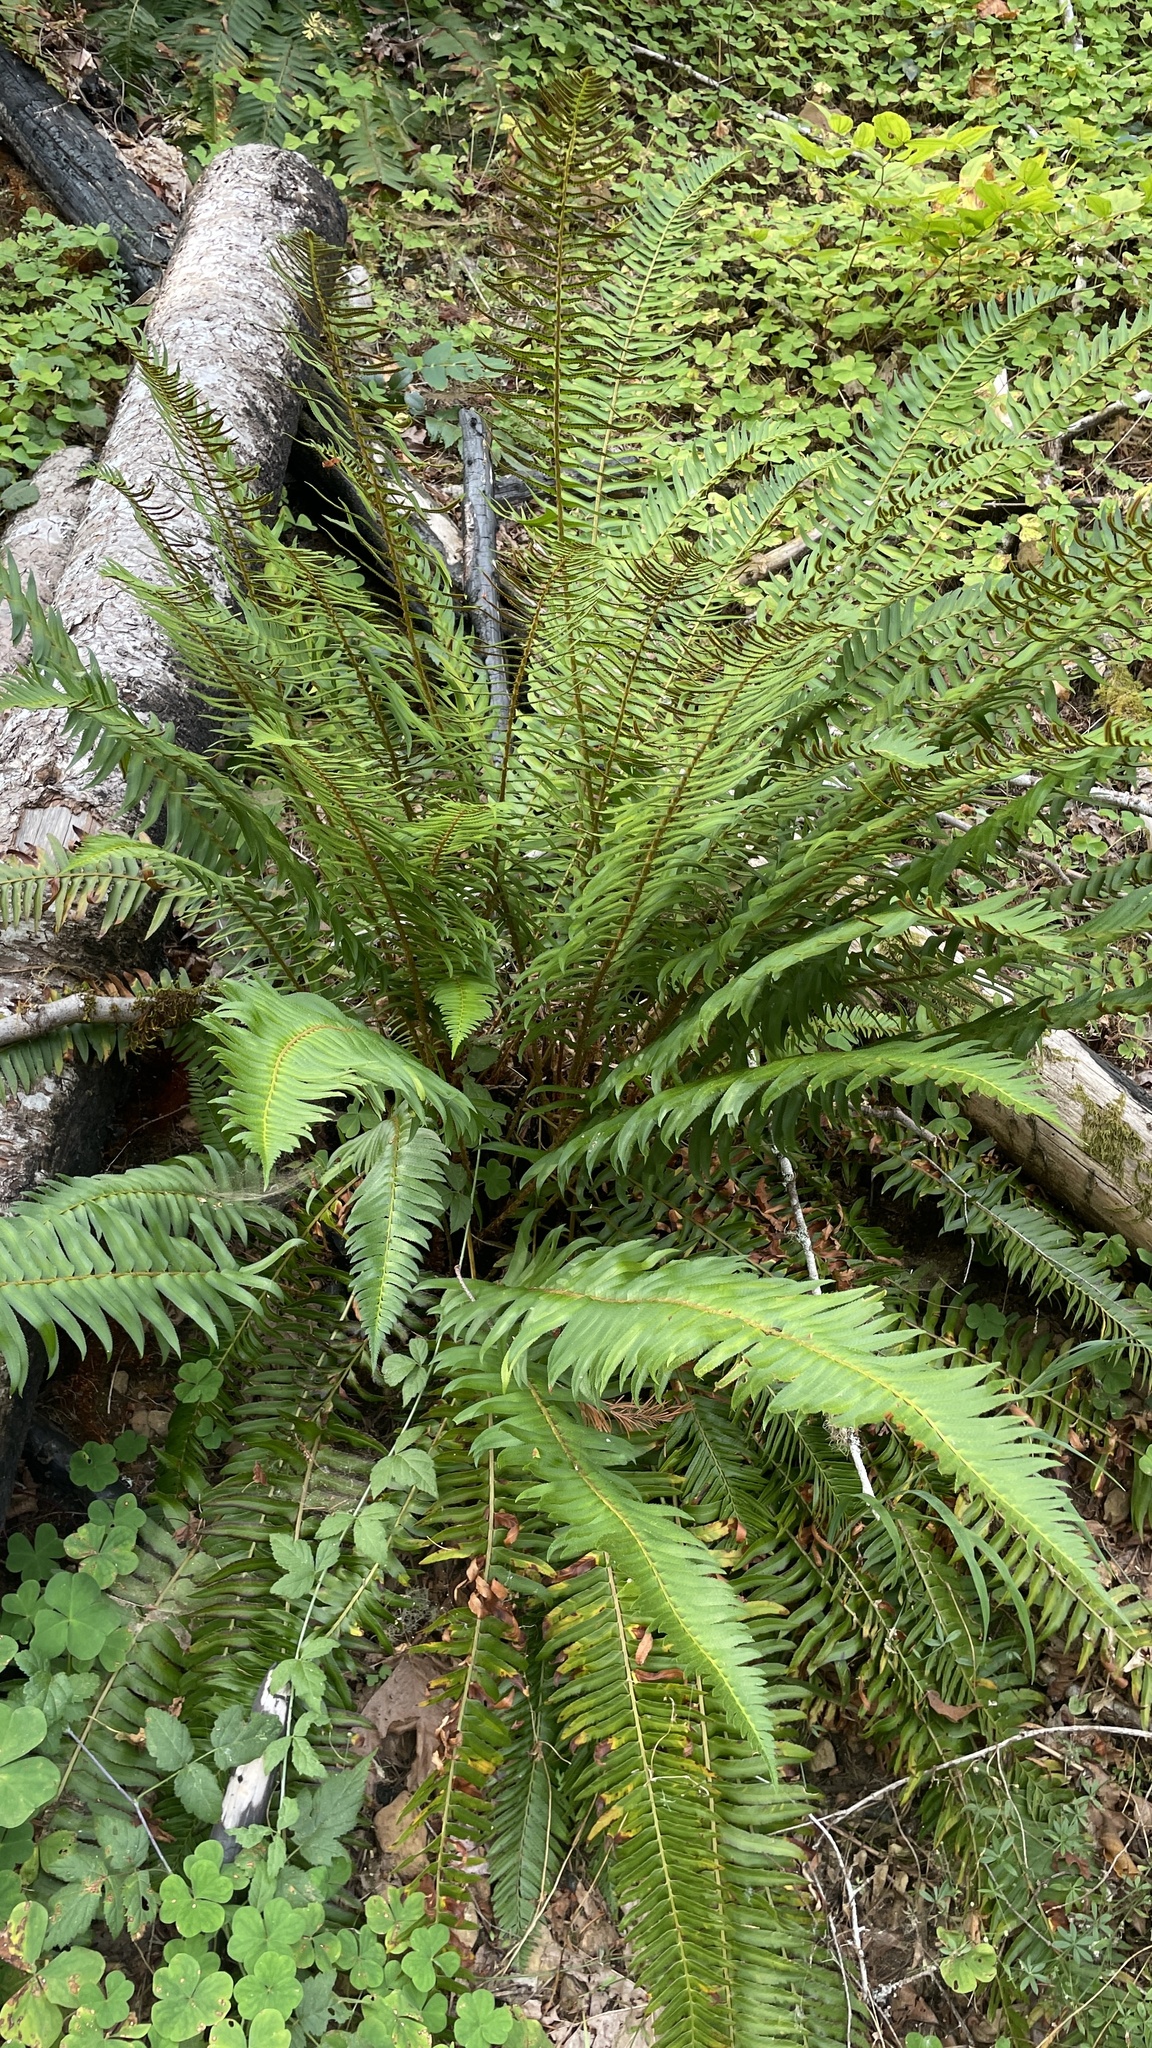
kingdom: Plantae
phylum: Tracheophyta
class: Polypodiopsida
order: Polypodiales
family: Dryopteridaceae
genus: Polystichum
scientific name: Polystichum munitum
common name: Western sword-fern
